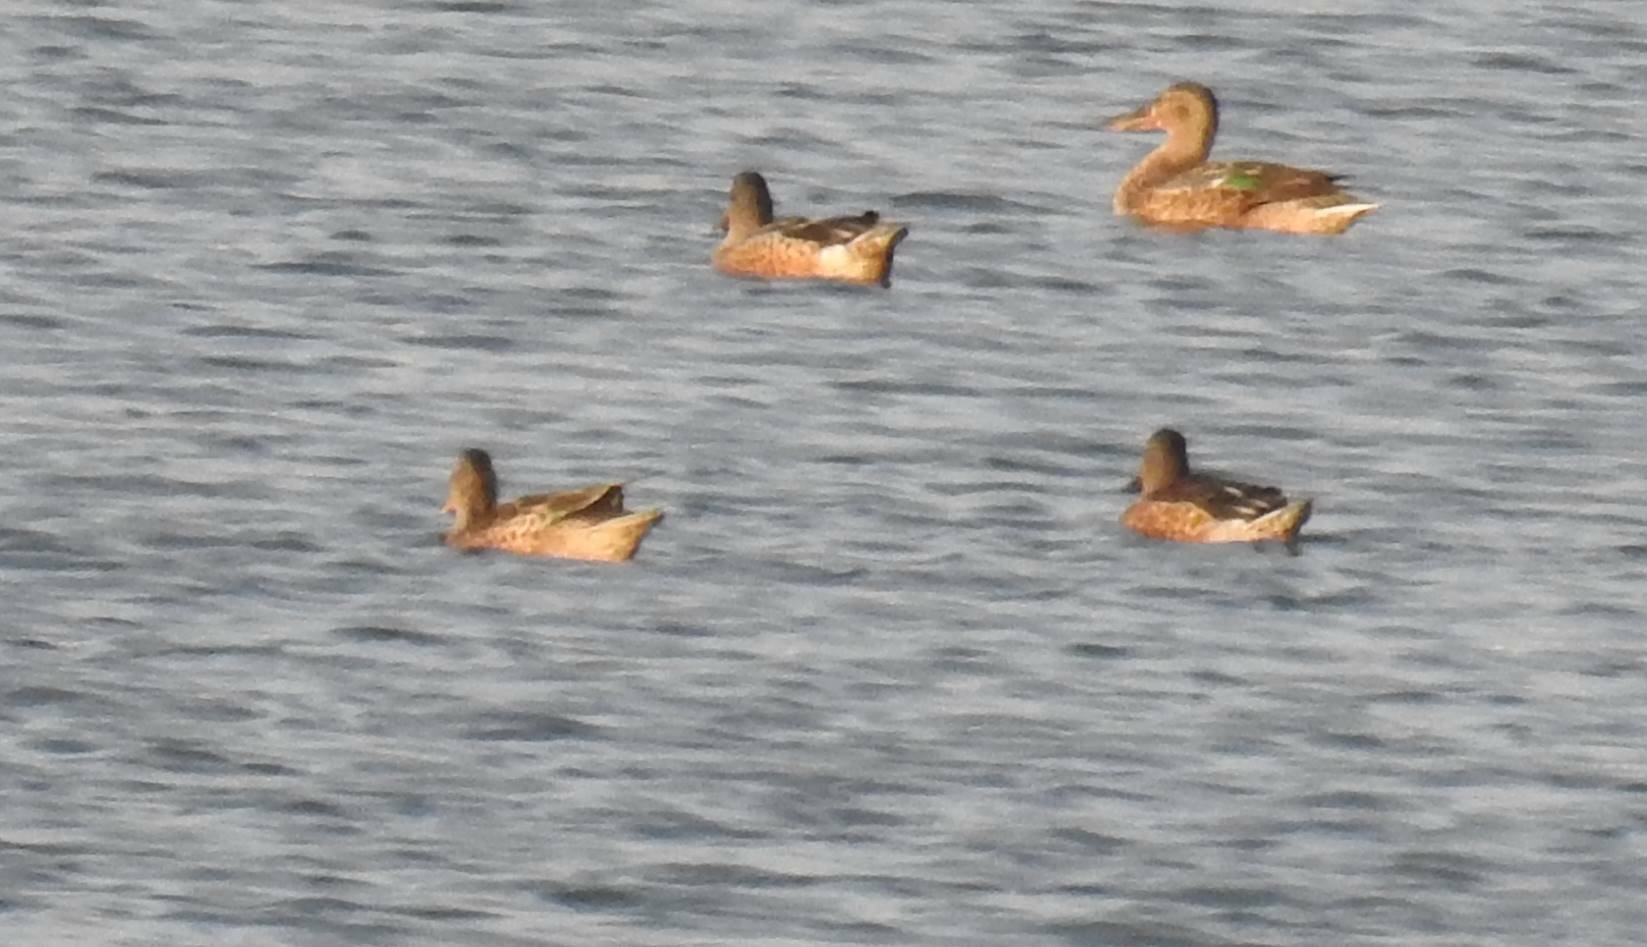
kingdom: Animalia
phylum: Chordata
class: Aves
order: Anseriformes
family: Anatidae
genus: Spatula
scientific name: Spatula clypeata
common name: Northern shoveler
